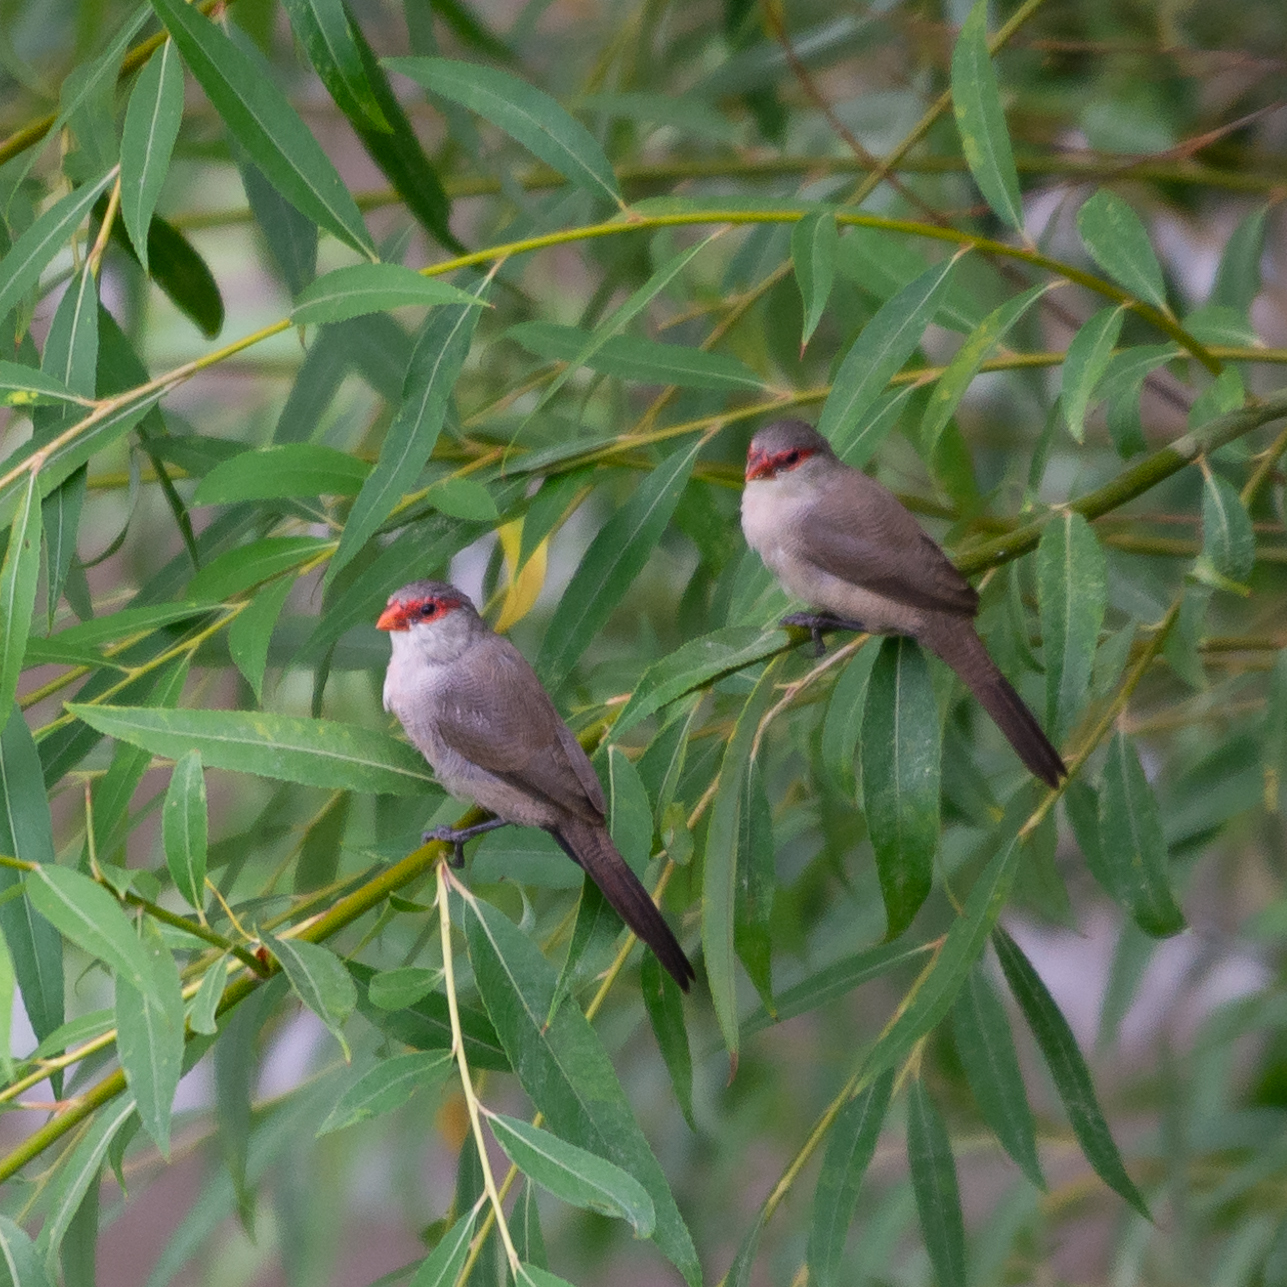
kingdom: Animalia
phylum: Chordata
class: Aves
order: Passeriformes
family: Estrildidae
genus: Estrilda
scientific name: Estrilda astrild
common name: Common waxbill
